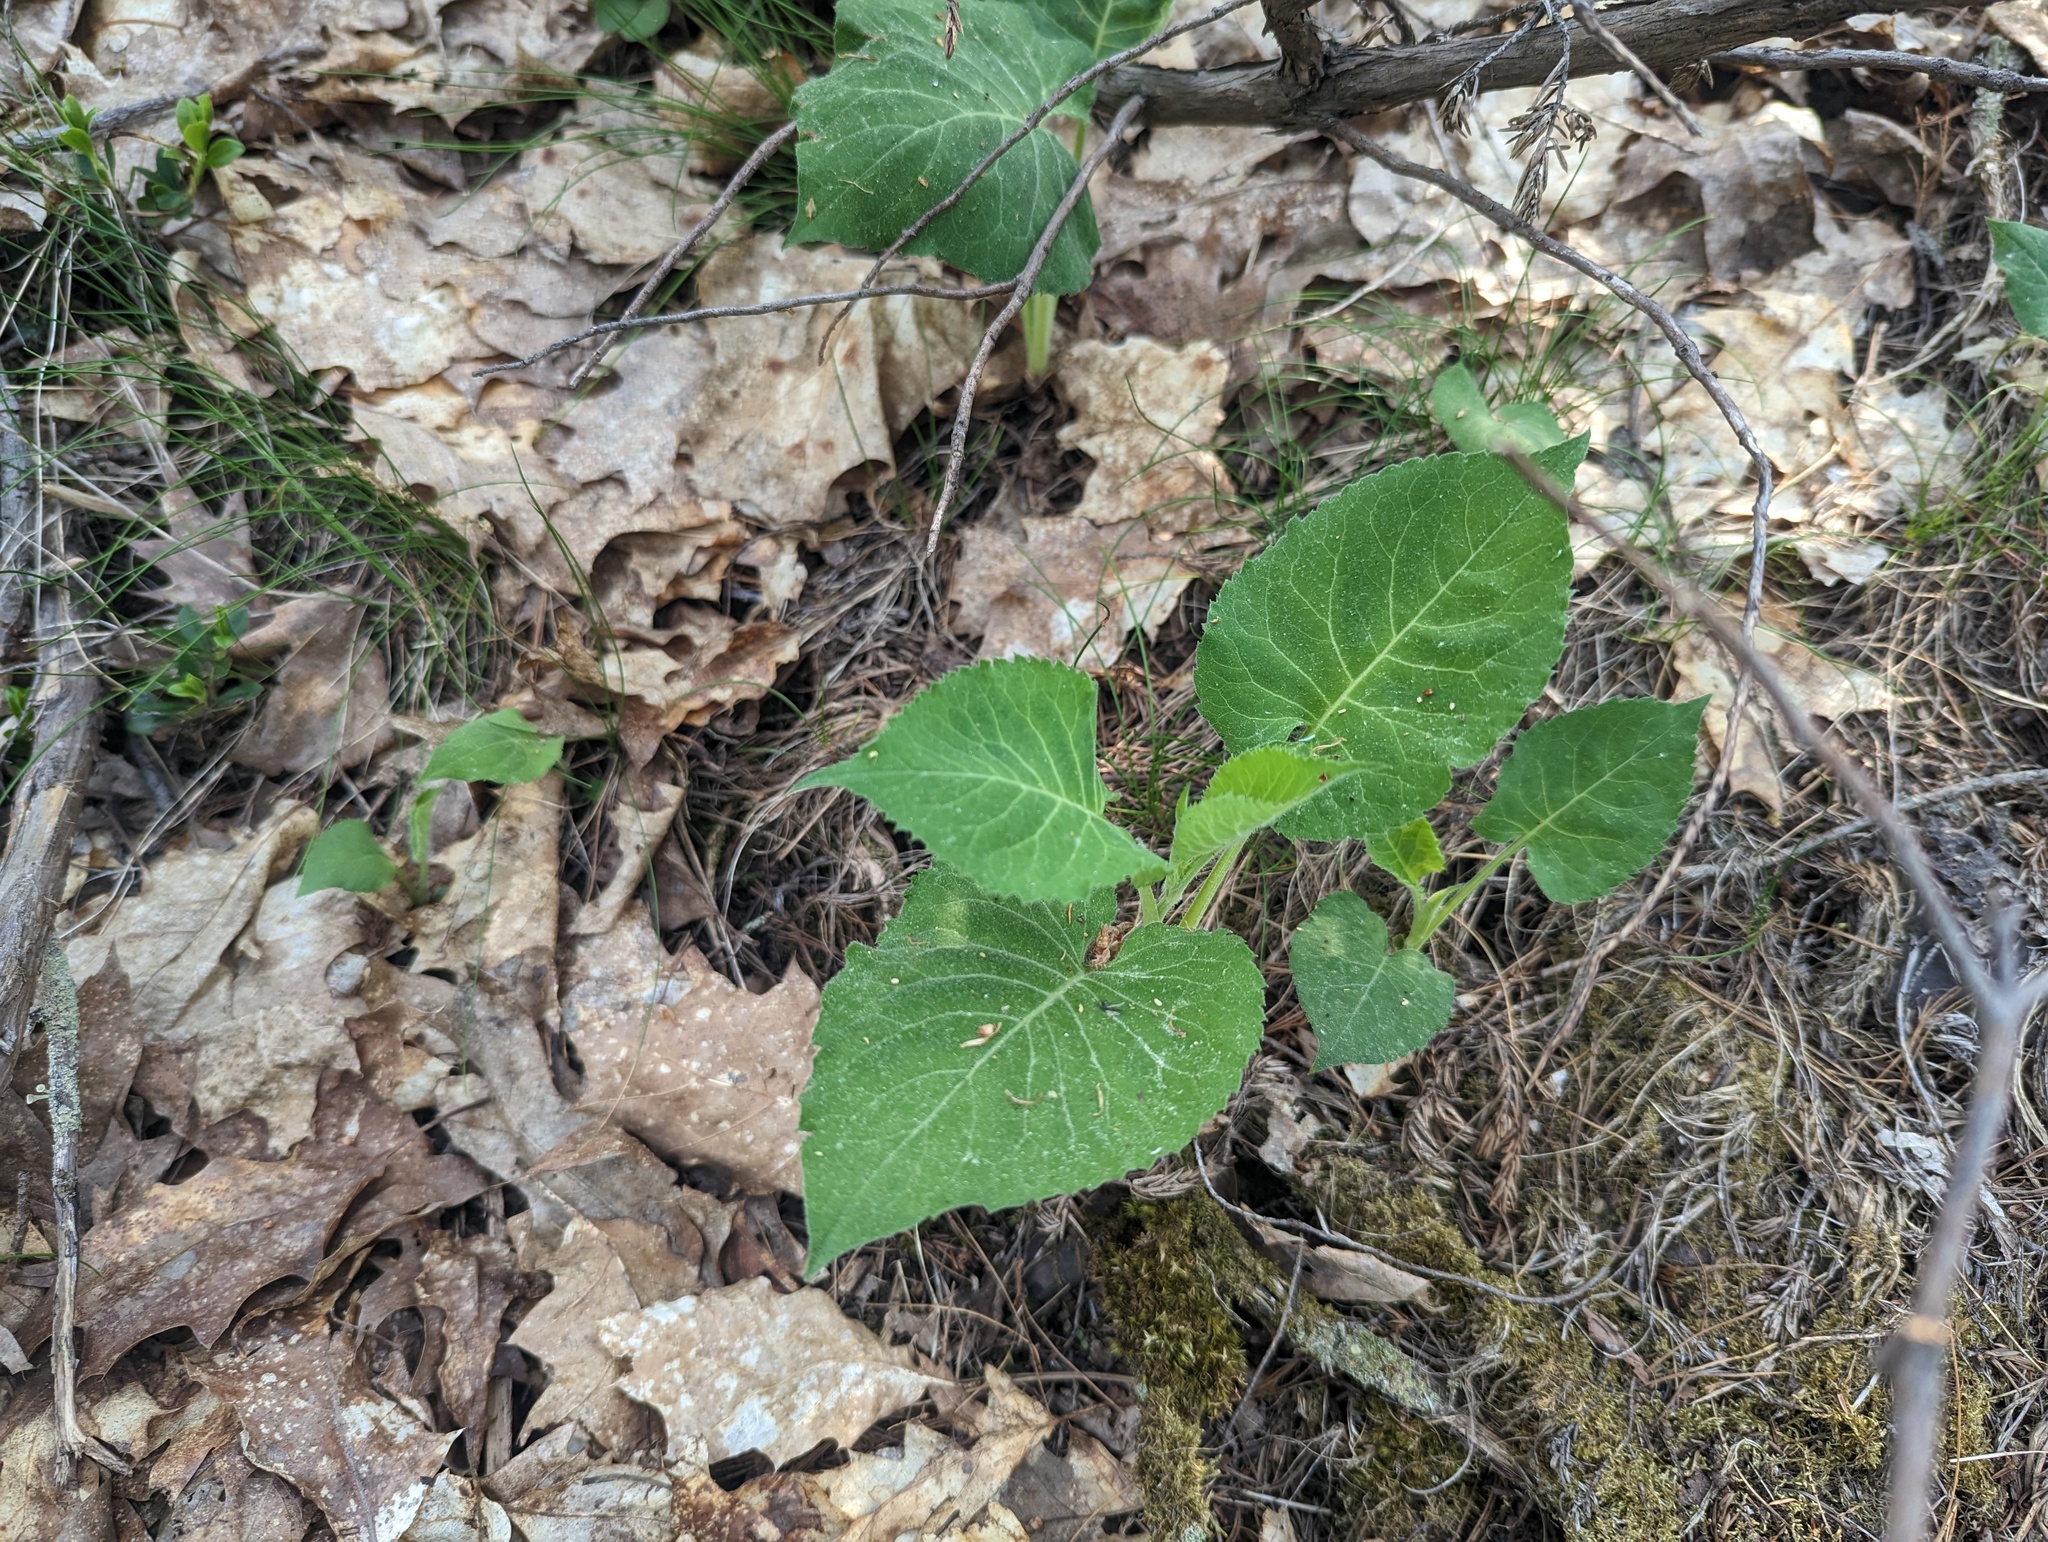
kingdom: Plantae
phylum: Tracheophyta
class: Magnoliopsida
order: Asterales
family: Asteraceae
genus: Eurybia
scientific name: Eurybia macrophylla
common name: Big-leaved aster
